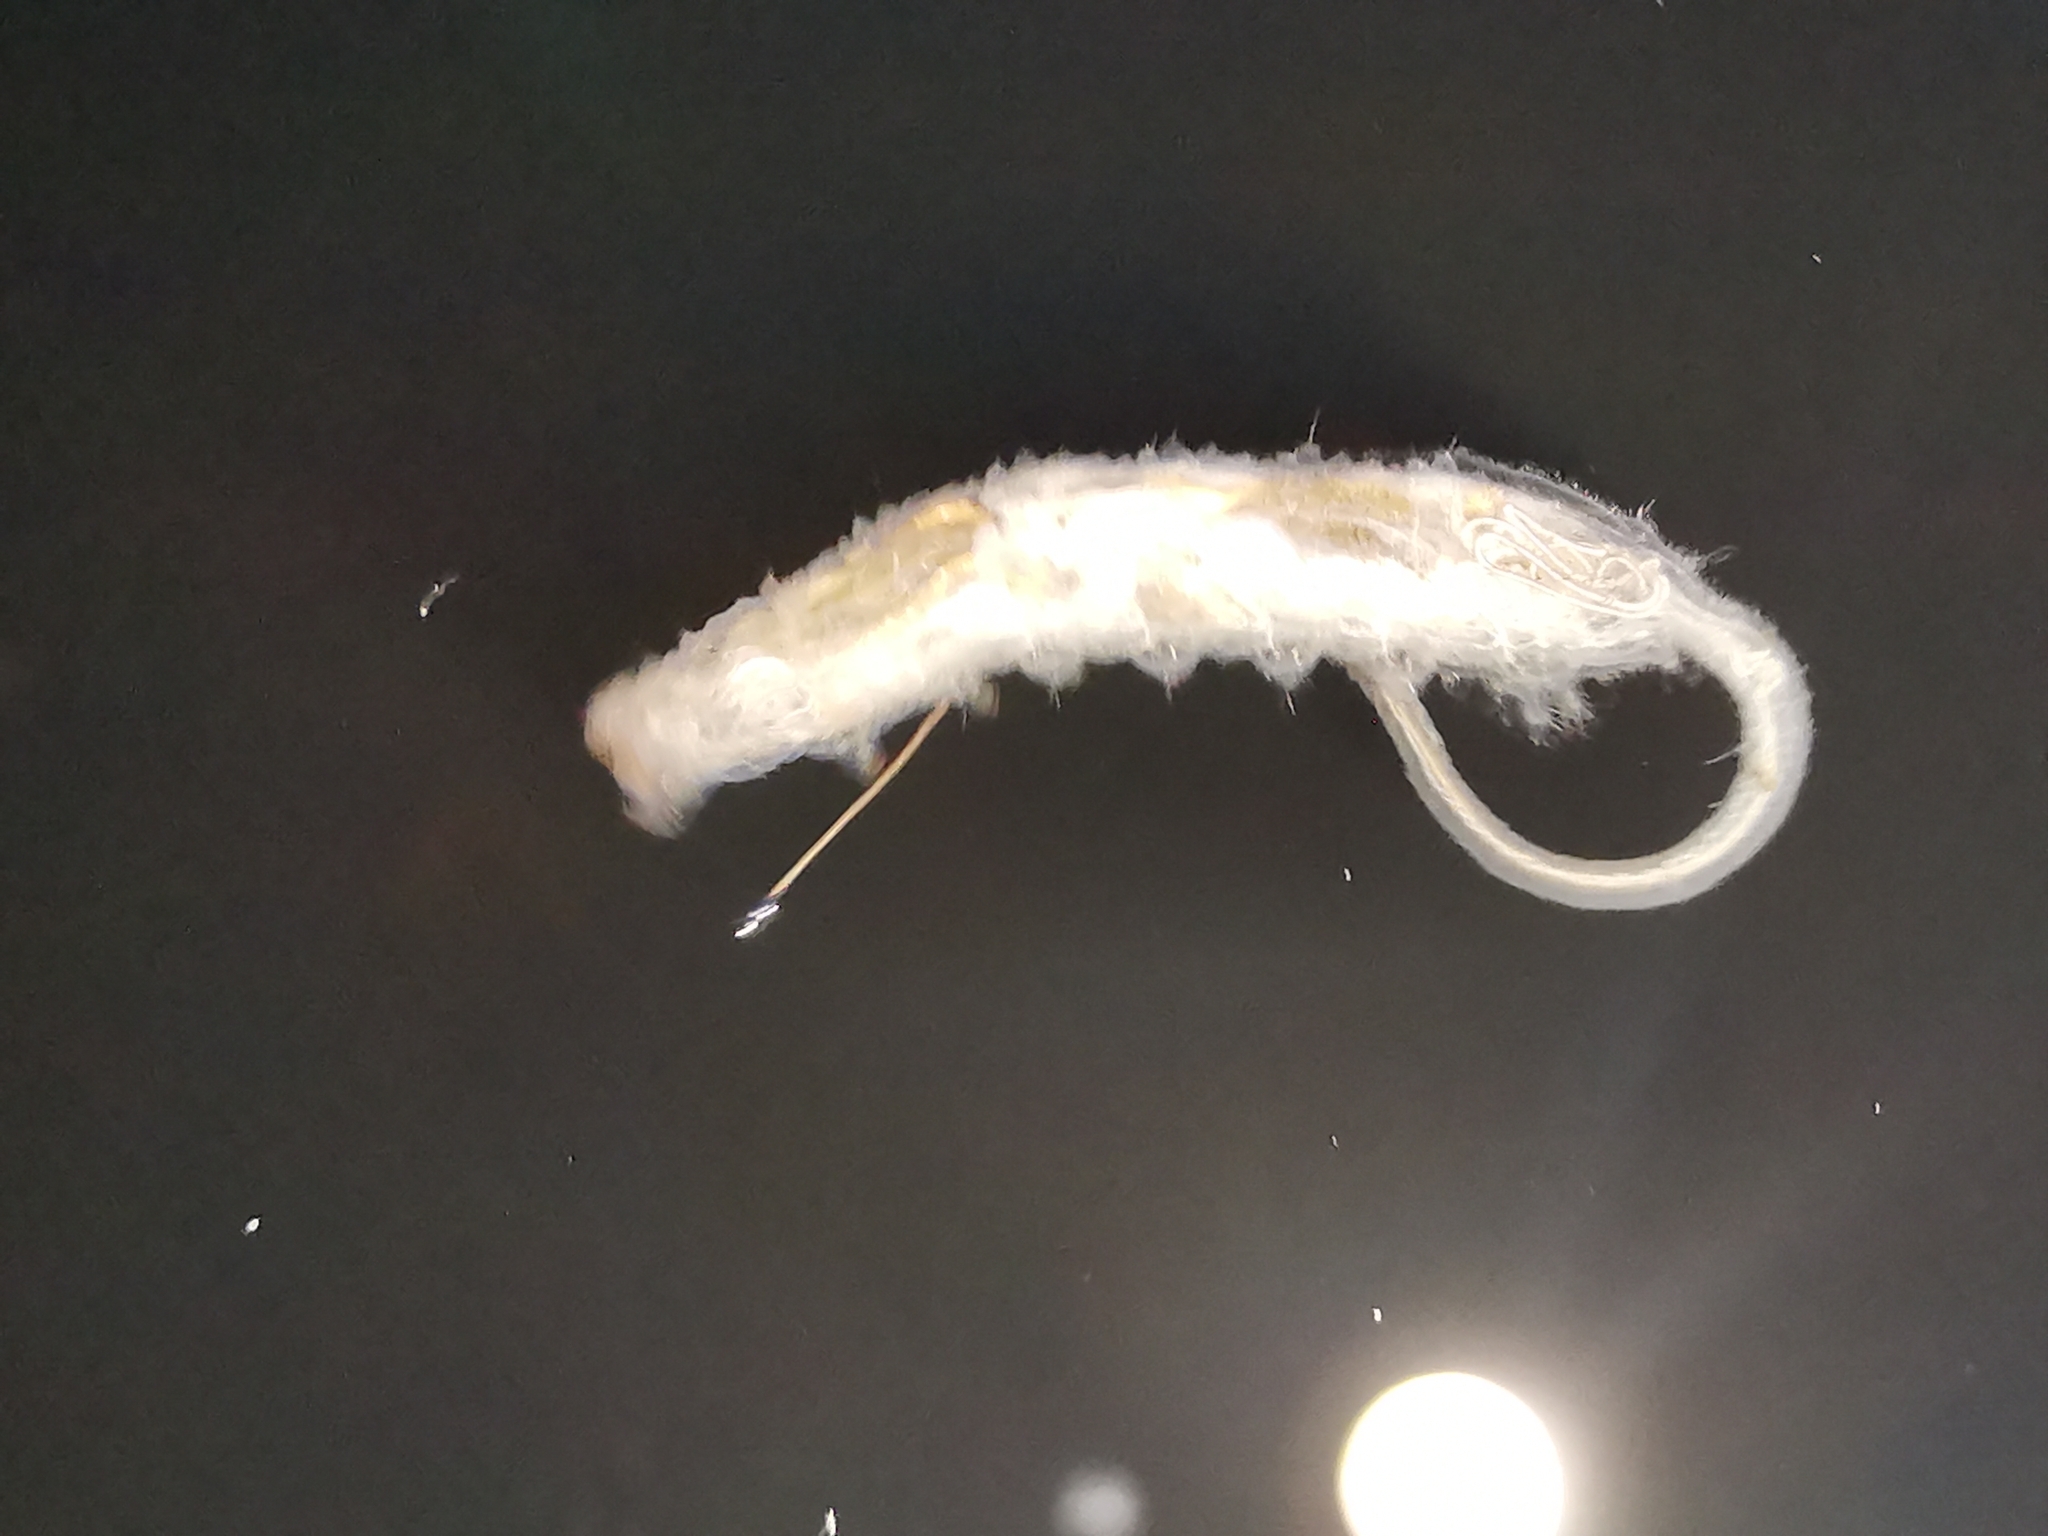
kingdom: Animalia
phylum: Arthropoda
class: Insecta
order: Diptera
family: Syrphidae
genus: Helophilus
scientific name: Helophilus pendulus
